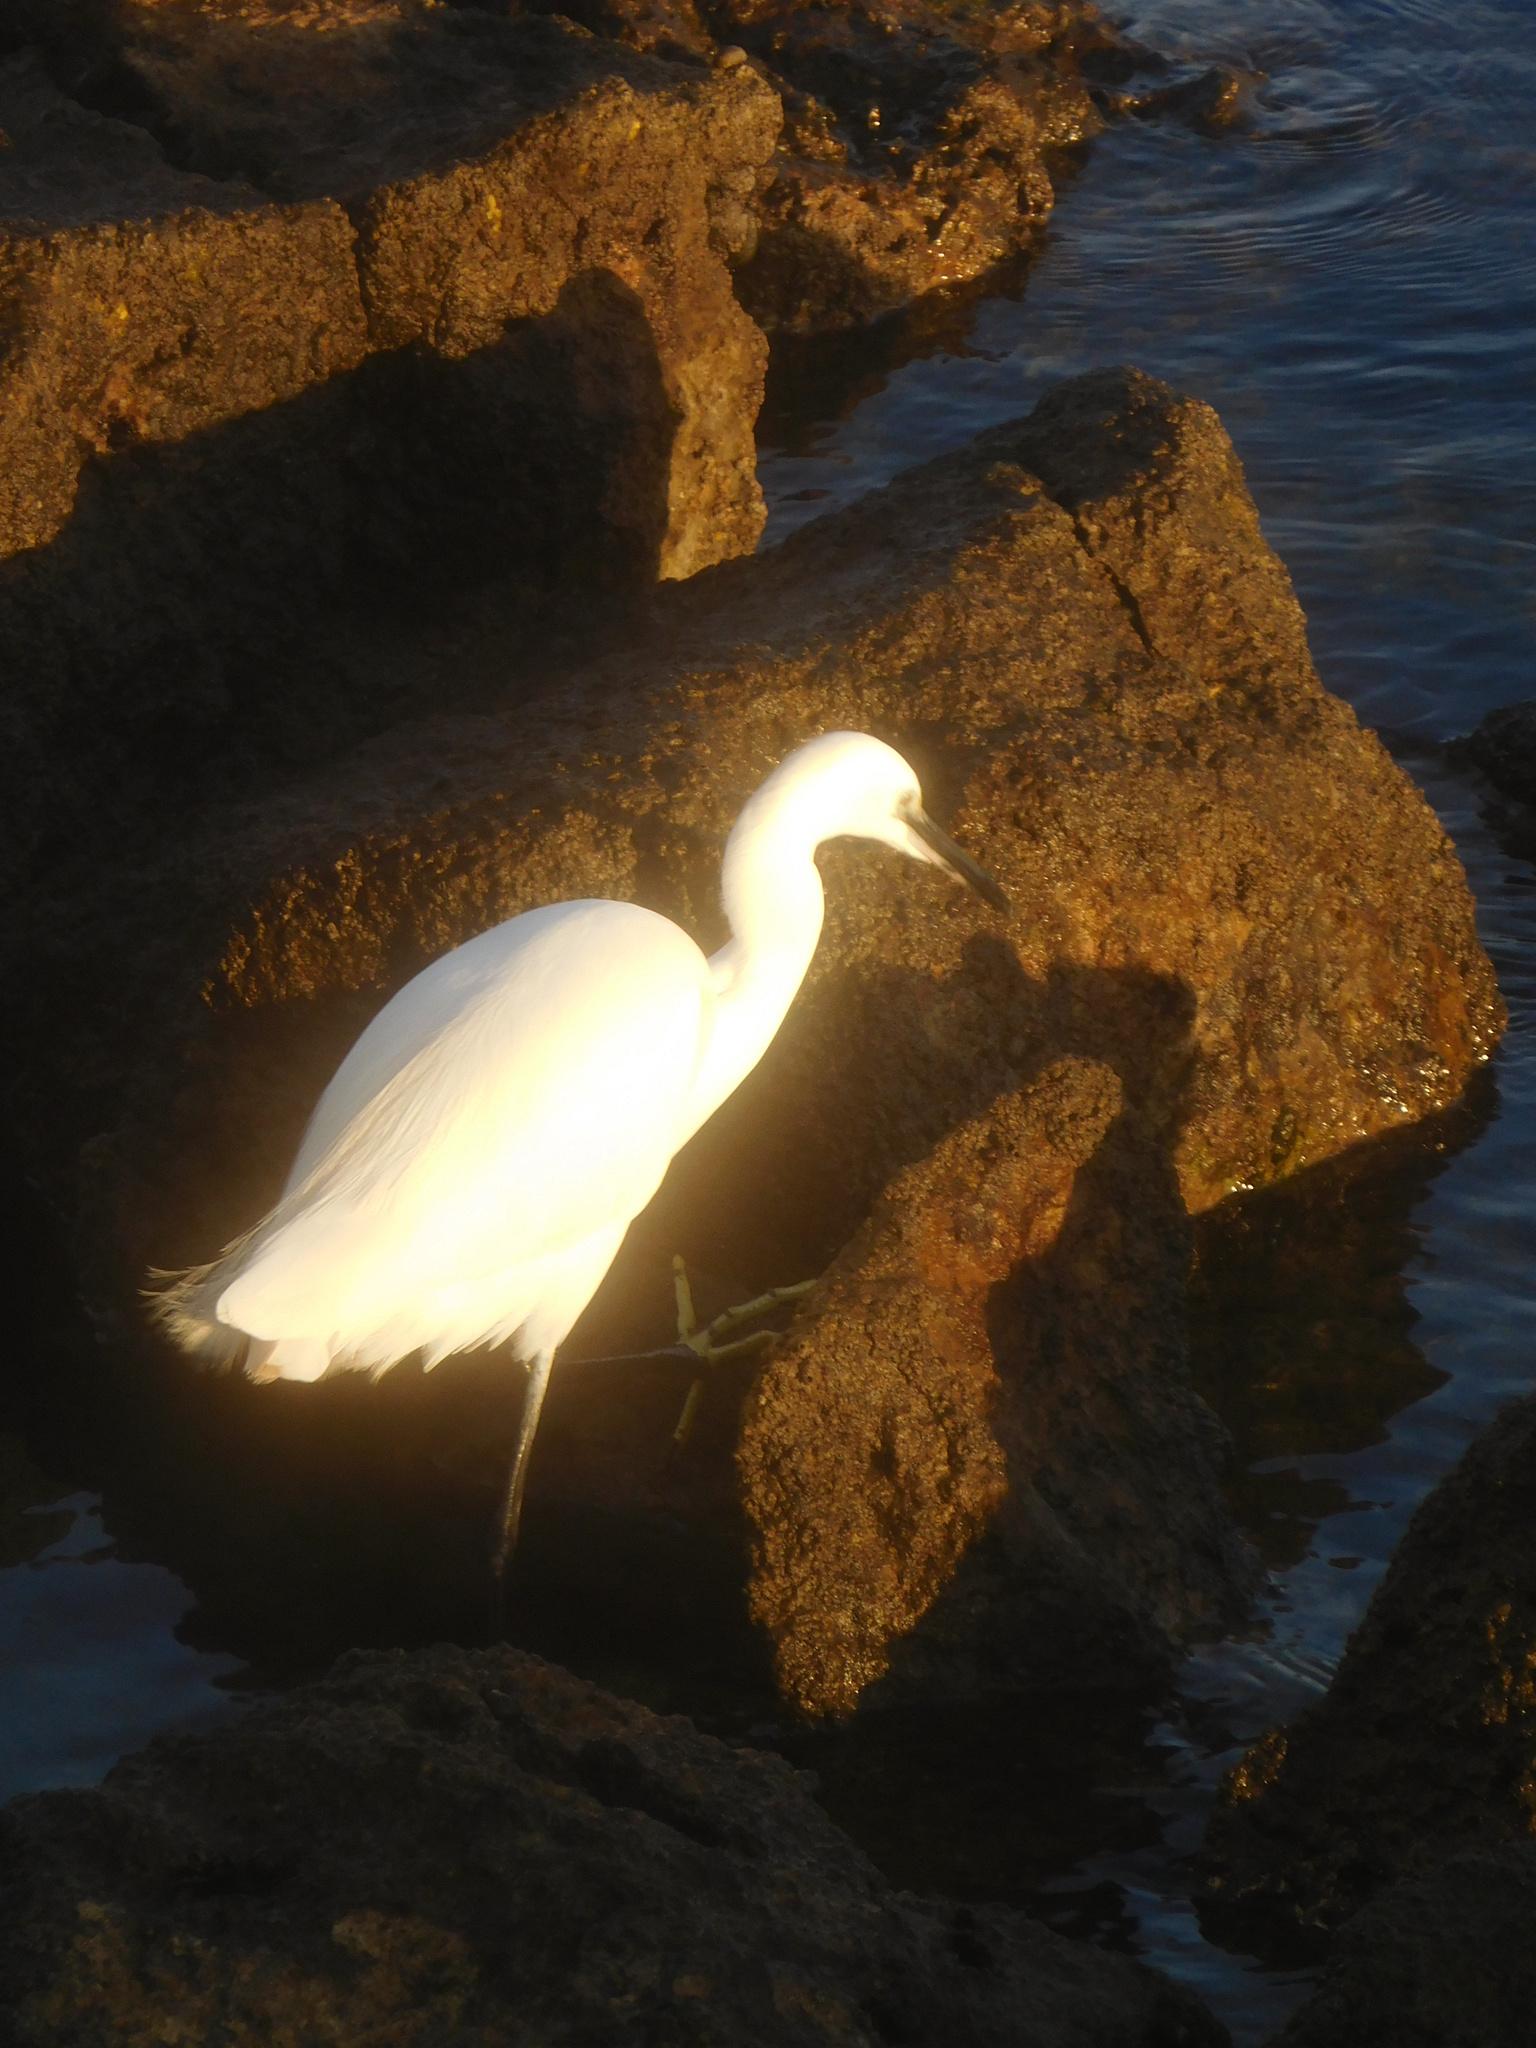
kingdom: Animalia
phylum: Chordata
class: Aves
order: Pelecaniformes
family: Ardeidae
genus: Egretta
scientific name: Egretta garzetta
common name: Little egret
